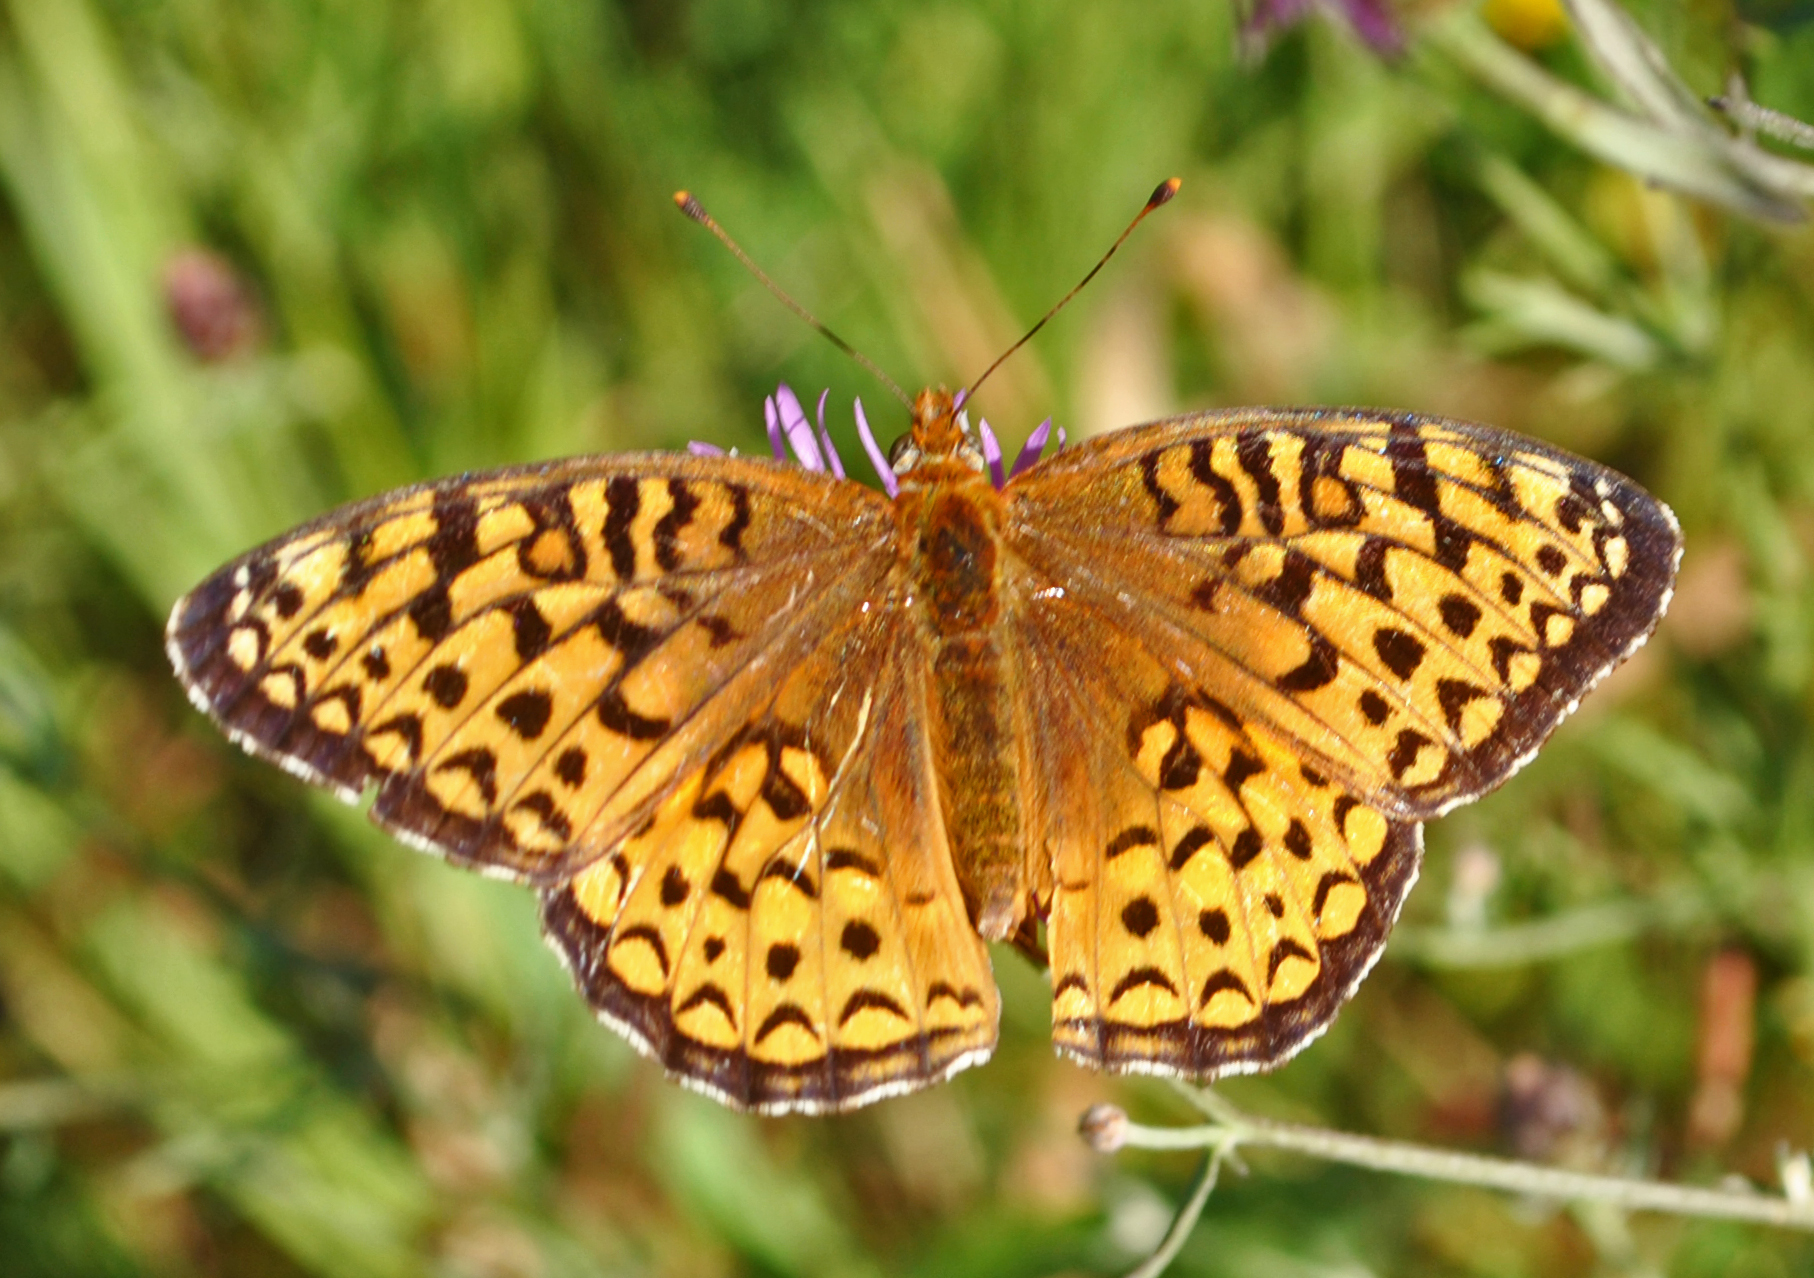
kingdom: Animalia
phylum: Arthropoda
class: Insecta
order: Lepidoptera
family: Nymphalidae
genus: Speyeria
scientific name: Speyeria atlantis
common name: Atlantis fritillary
